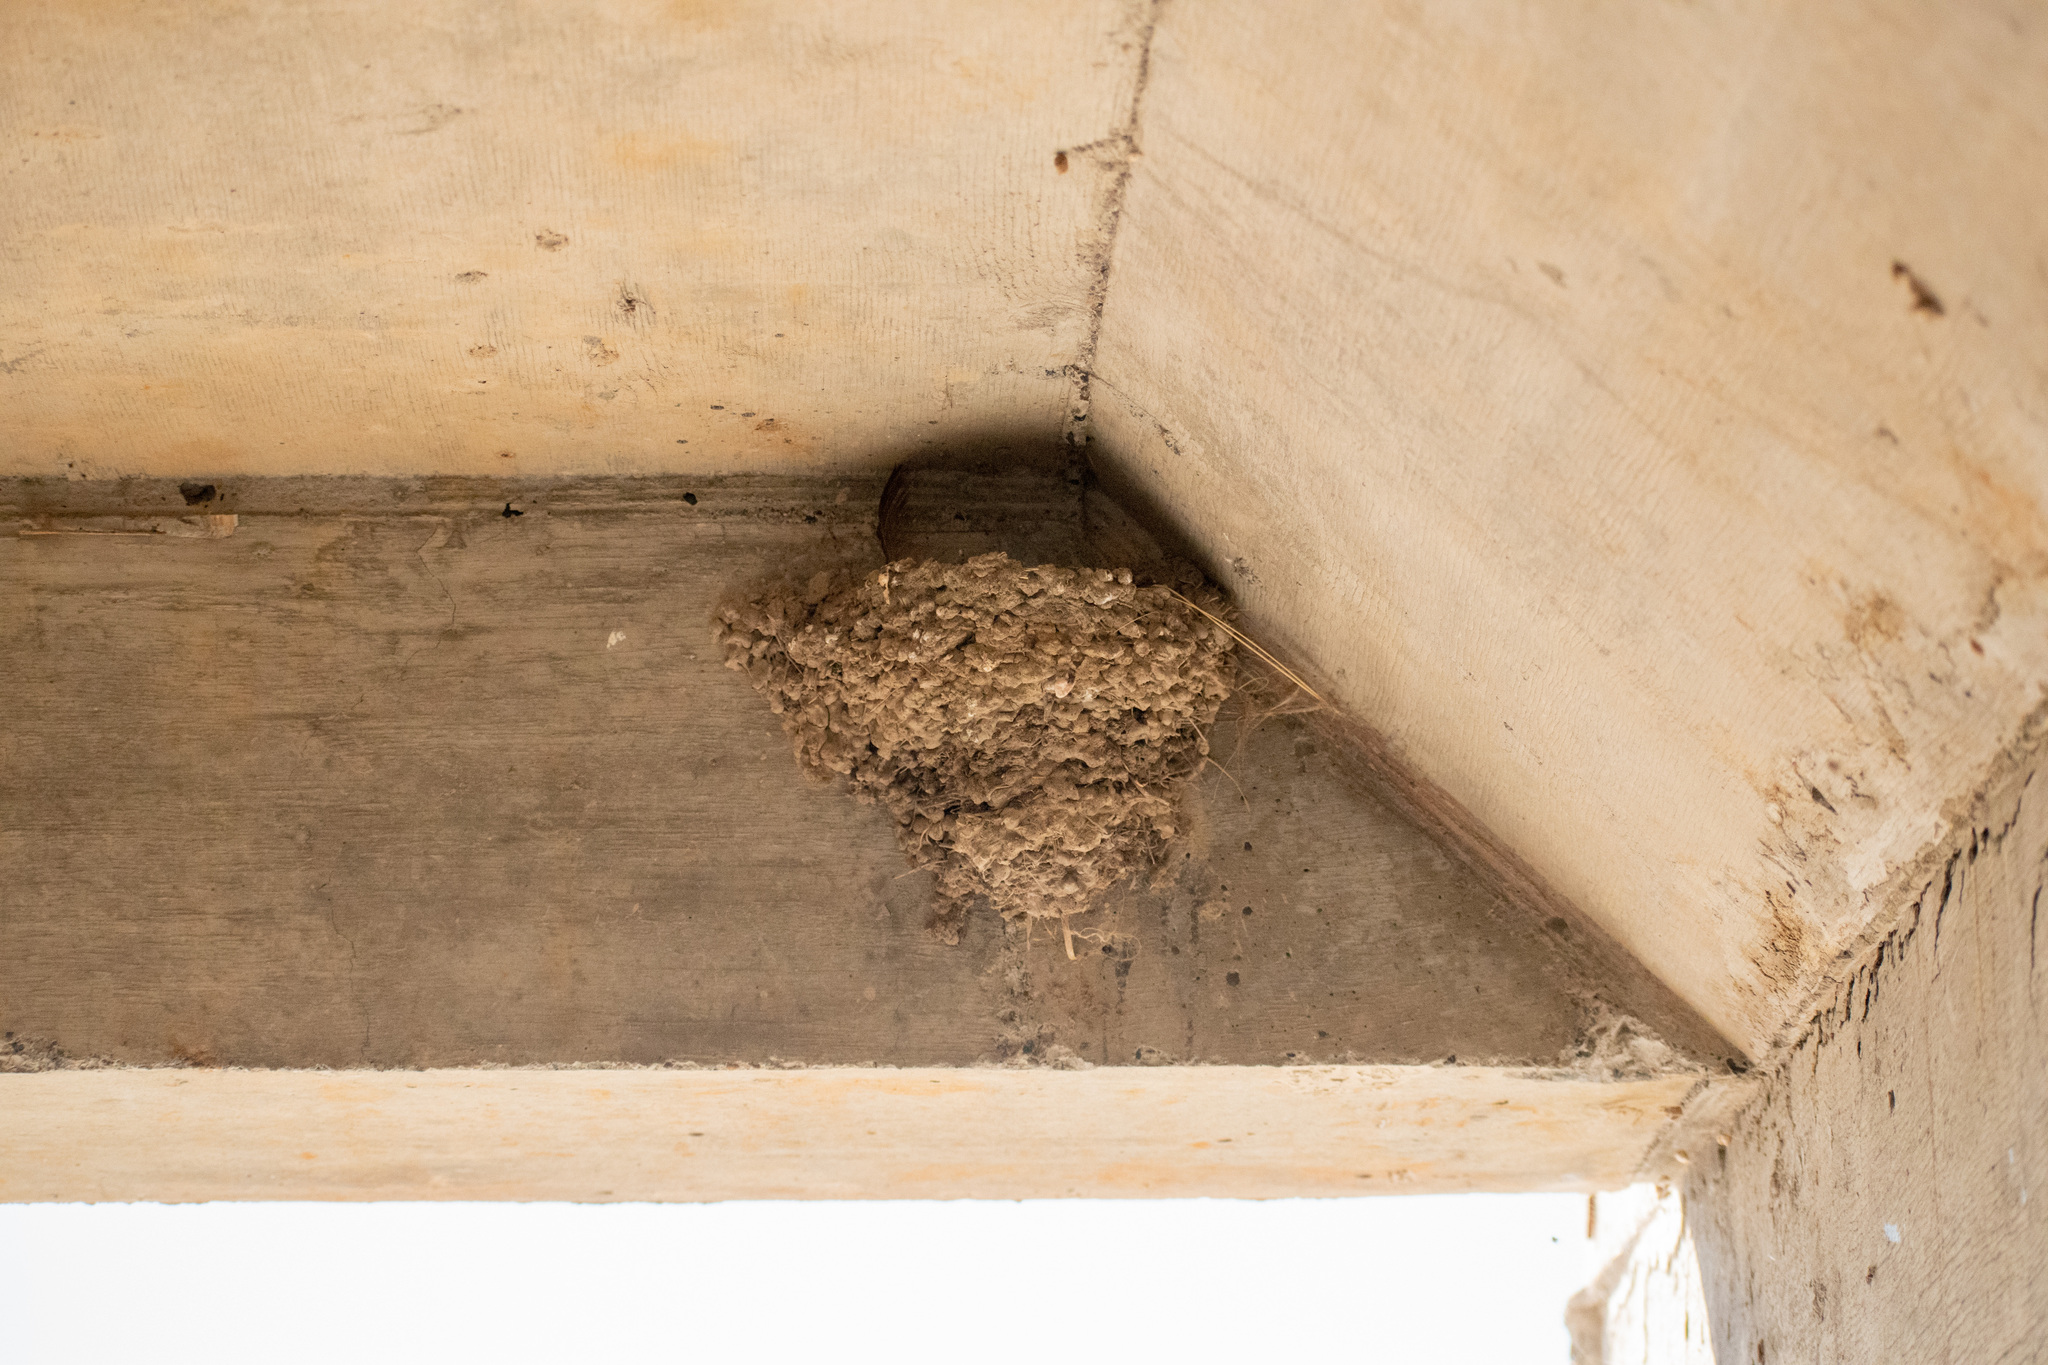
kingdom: Animalia
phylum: Chordata
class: Aves
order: Passeriformes
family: Hirundinidae
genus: Hirundo
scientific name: Hirundo rustica
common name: Barn swallow
